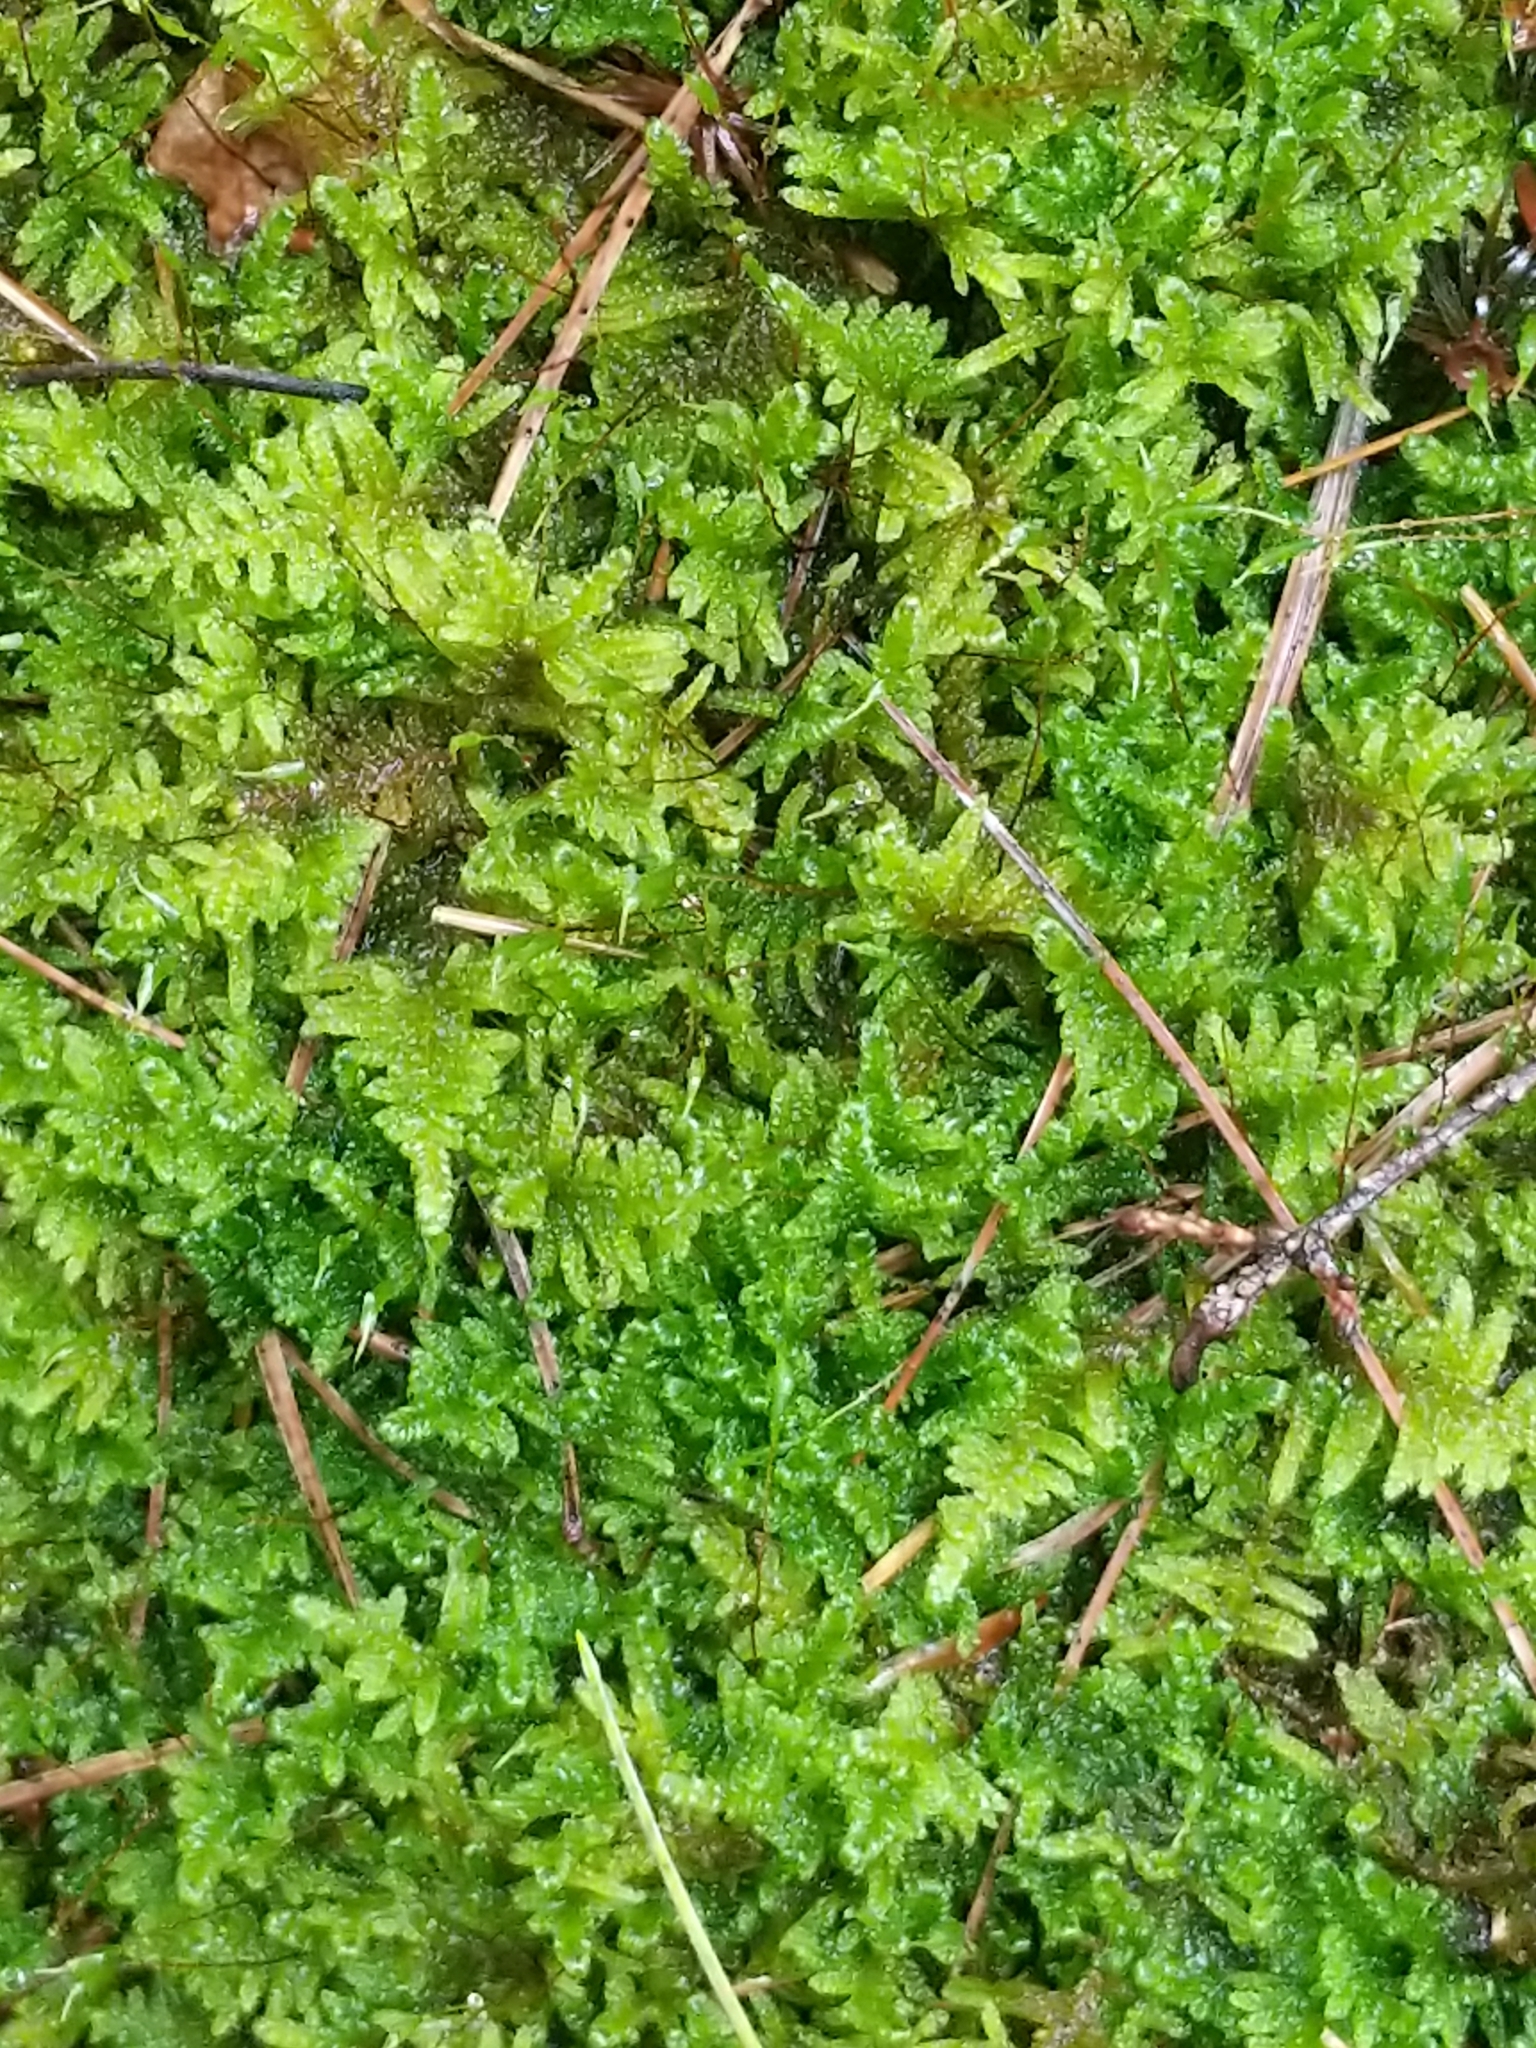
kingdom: Plantae
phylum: Bryophyta
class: Bryopsida
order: Hypnales
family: Callicladiaceae
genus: Callicladium
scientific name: Callicladium imponens
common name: Brocade moss
